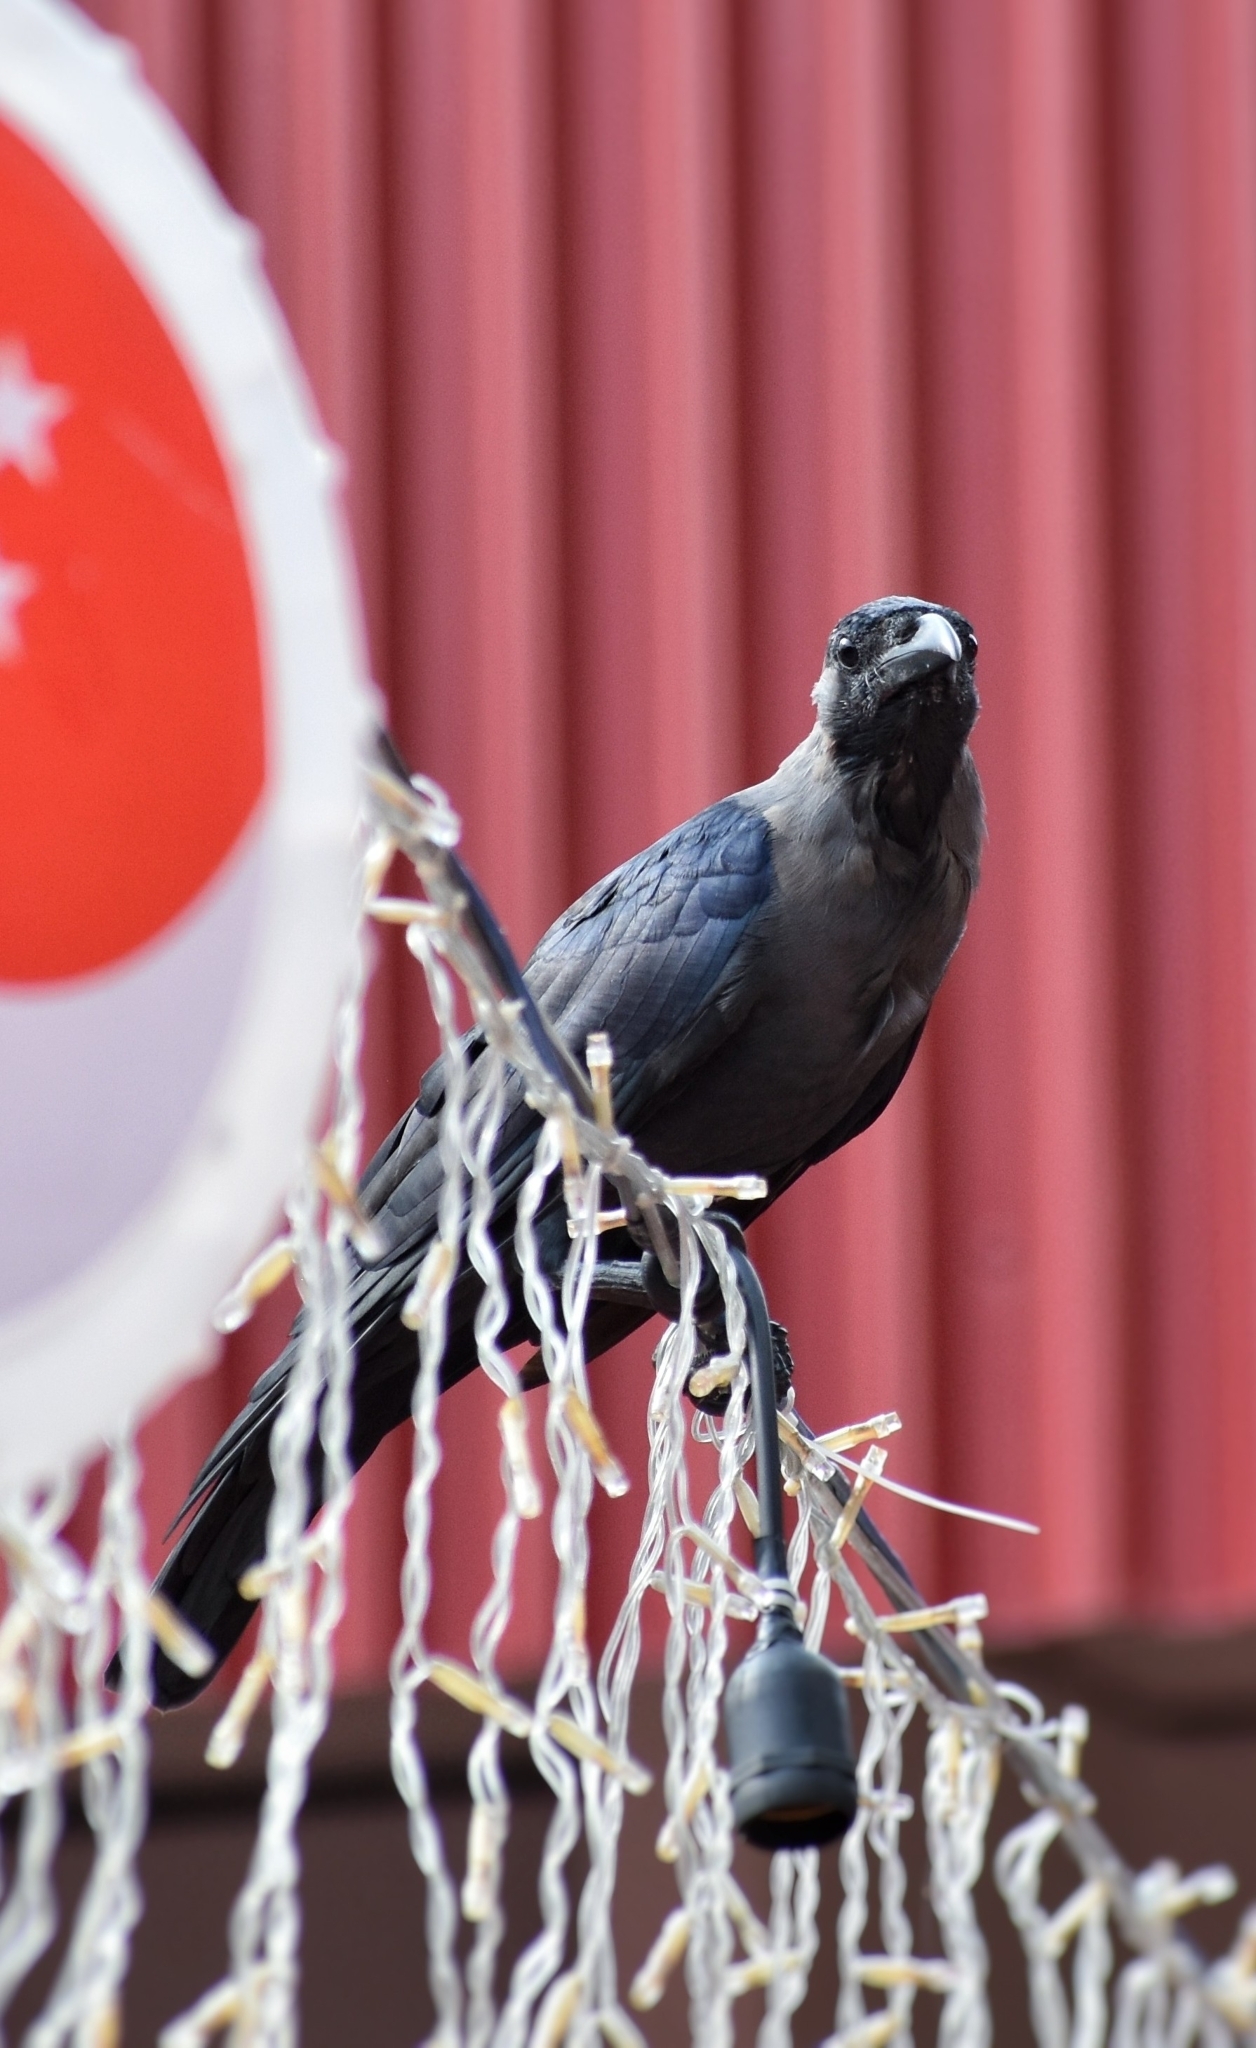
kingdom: Animalia
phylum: Chordata
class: Aves
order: Passeriformes
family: Corvidae
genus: Corvus
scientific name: Corvus splendens
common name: House crow
